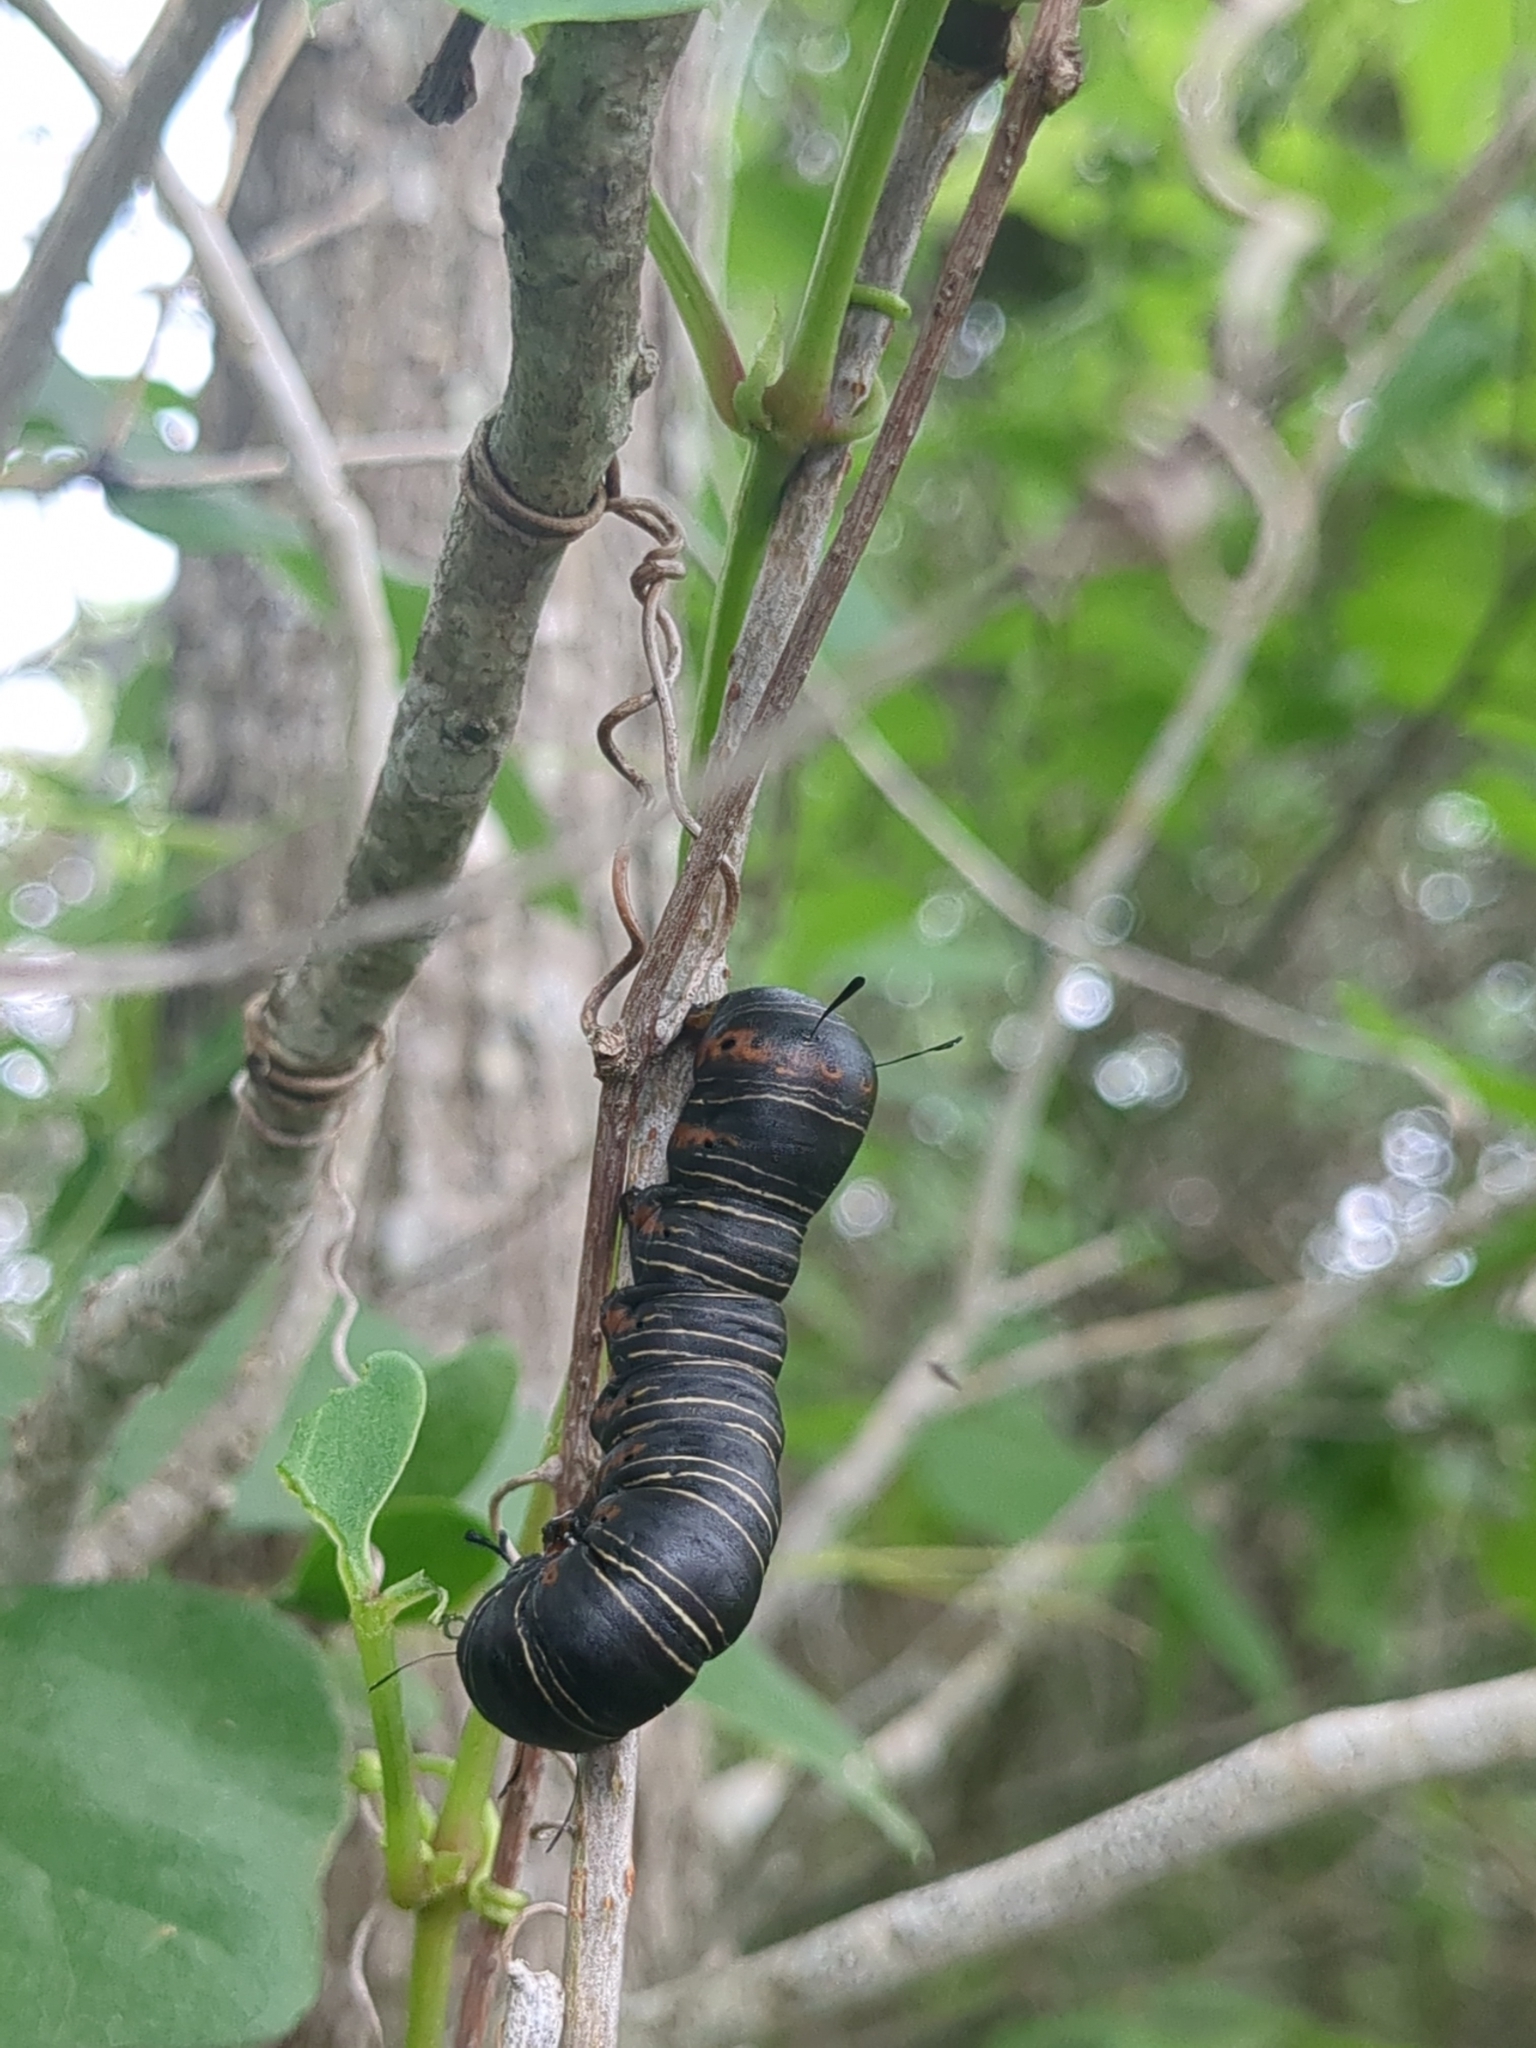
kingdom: Animalia
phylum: Arthropoda
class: Insecta
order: Lepidoptera
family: Noctuidae
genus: Xerociris
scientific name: Xerociris wilsonii
